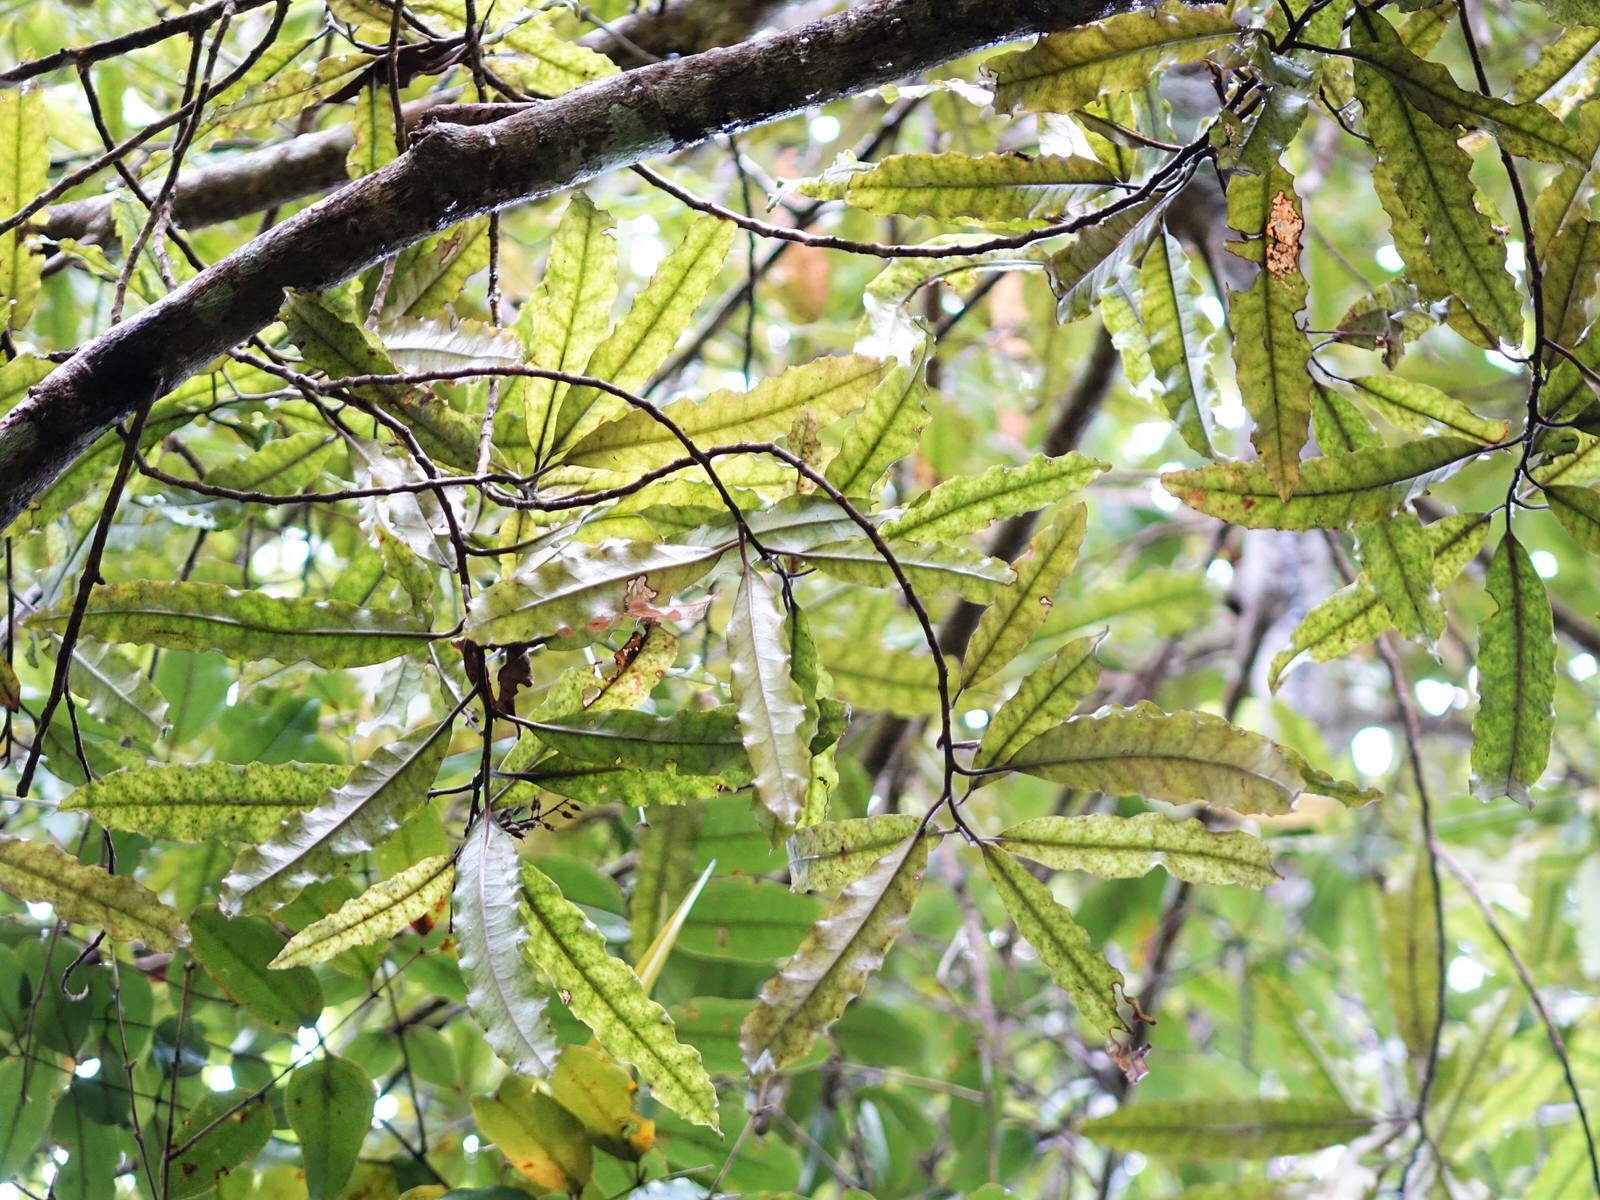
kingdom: Plantae
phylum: Tracheophyta
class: Magnoliopsida
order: Paracryphiales
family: Paracryphiaceae
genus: Quintinia
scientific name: Quintinia serrata
